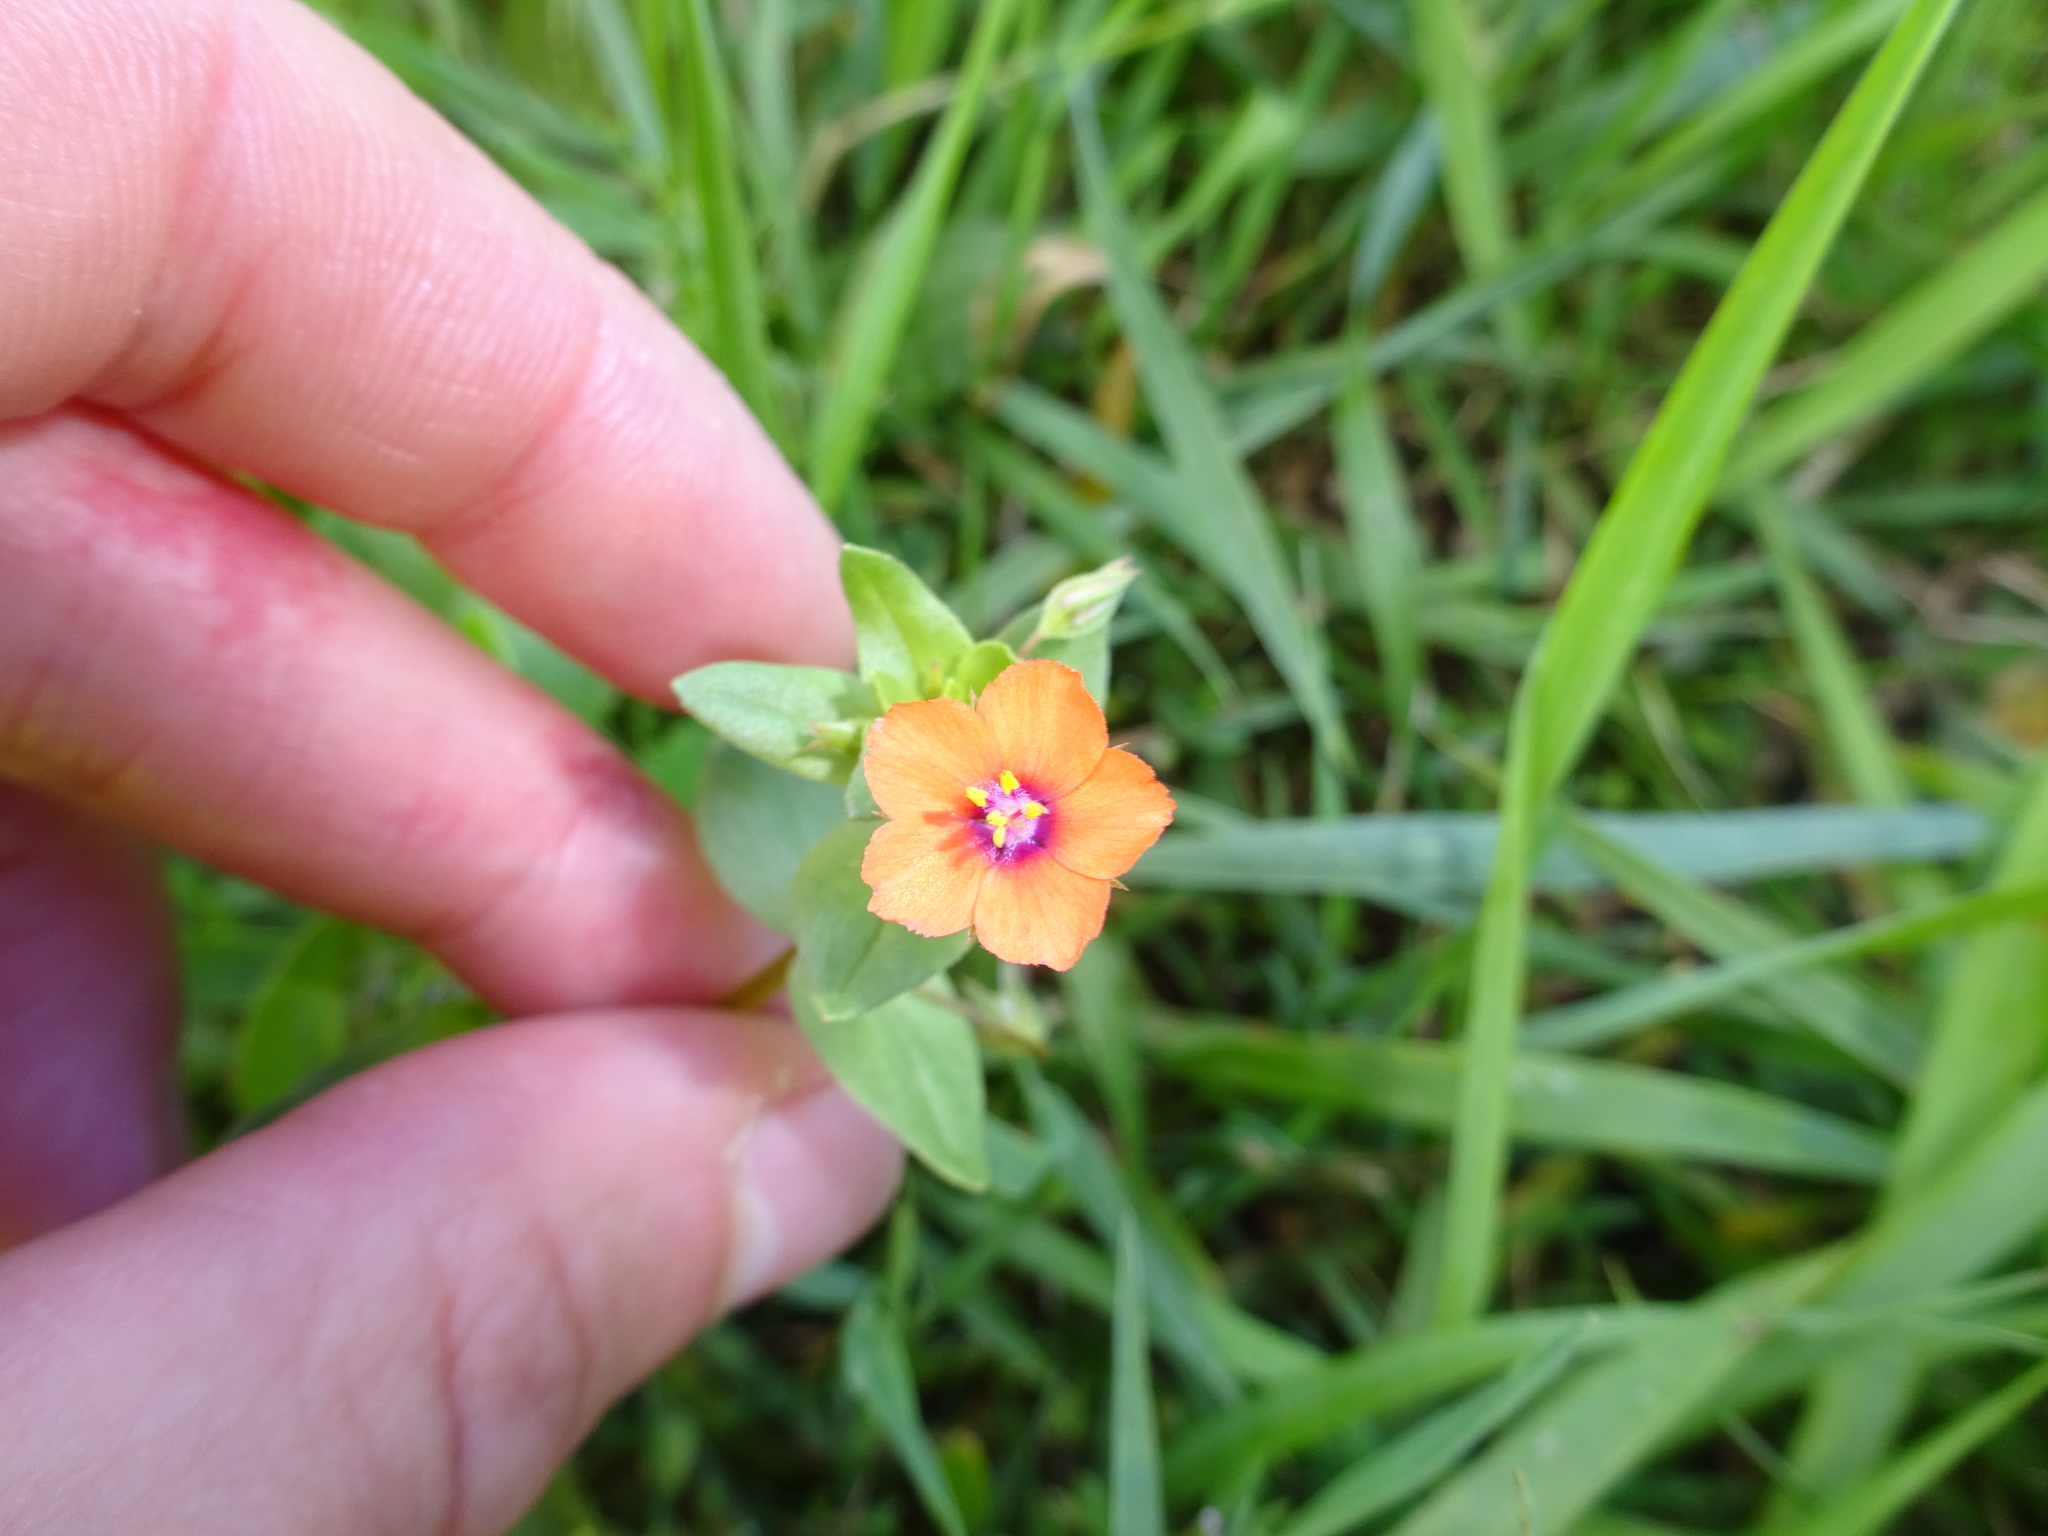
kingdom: Plantae
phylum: Tracheophyta
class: Magnoliopsida
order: Ericales
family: Primulaceae
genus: Lysimachia
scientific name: Lysimachia arvensis
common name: Scarlet pimpernel
